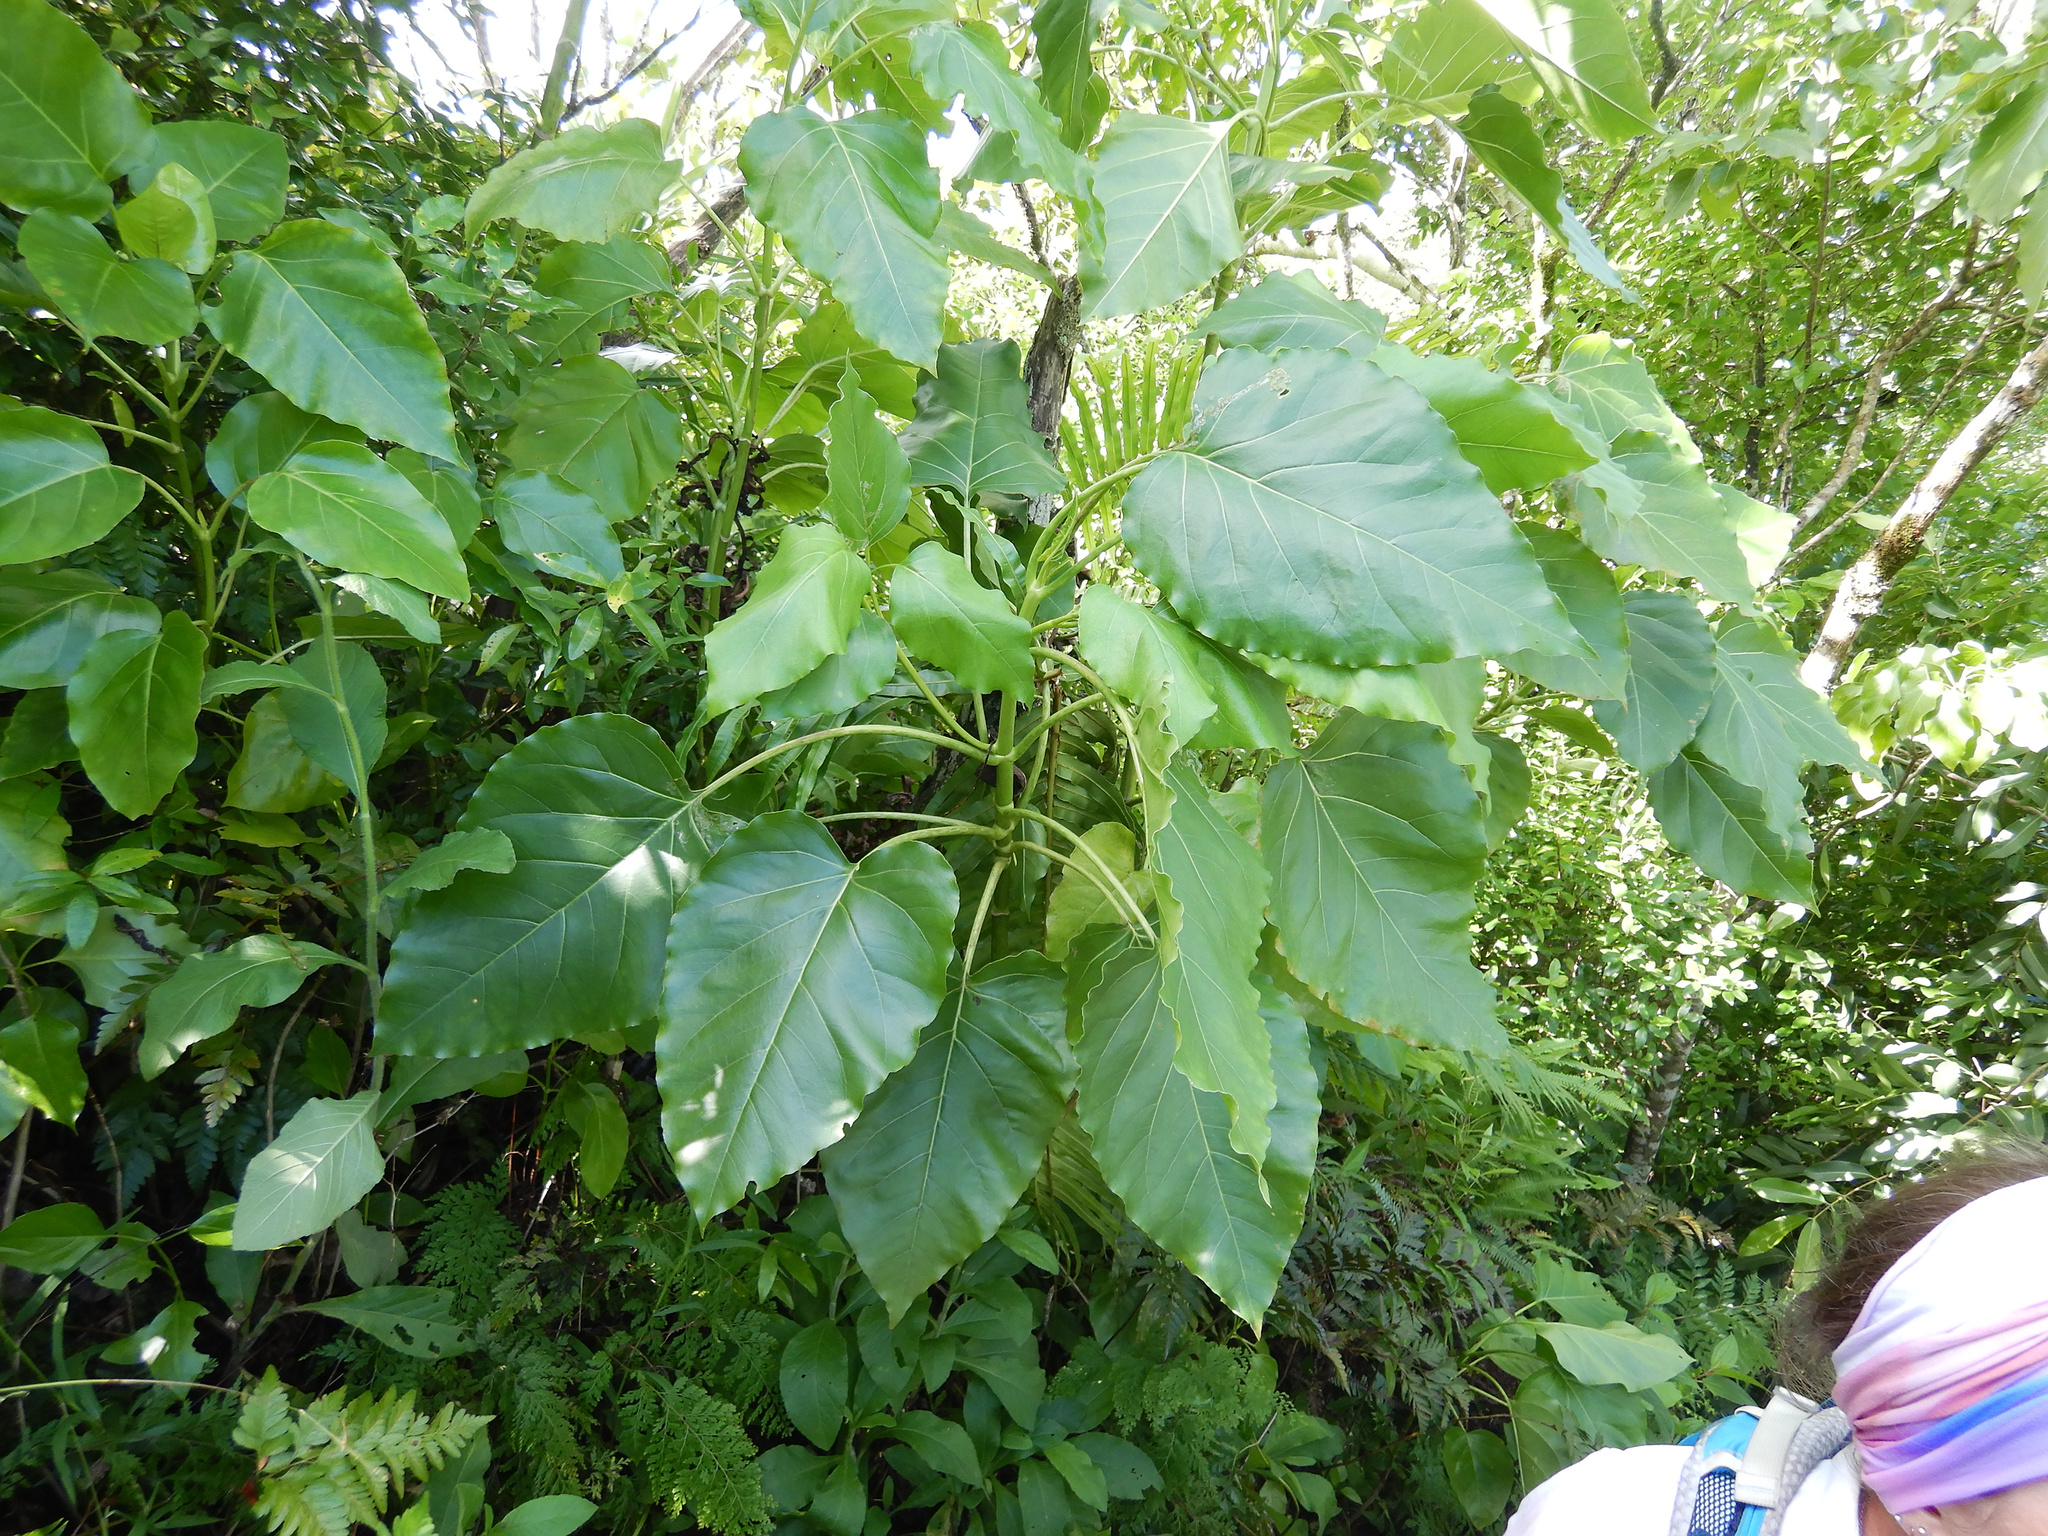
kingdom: Plantae
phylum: Tracheophyta
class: Magnoliopsida
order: Asterales
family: Asteraceae
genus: Fitchia
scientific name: Fitchia speciosa
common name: Burr daisytree
